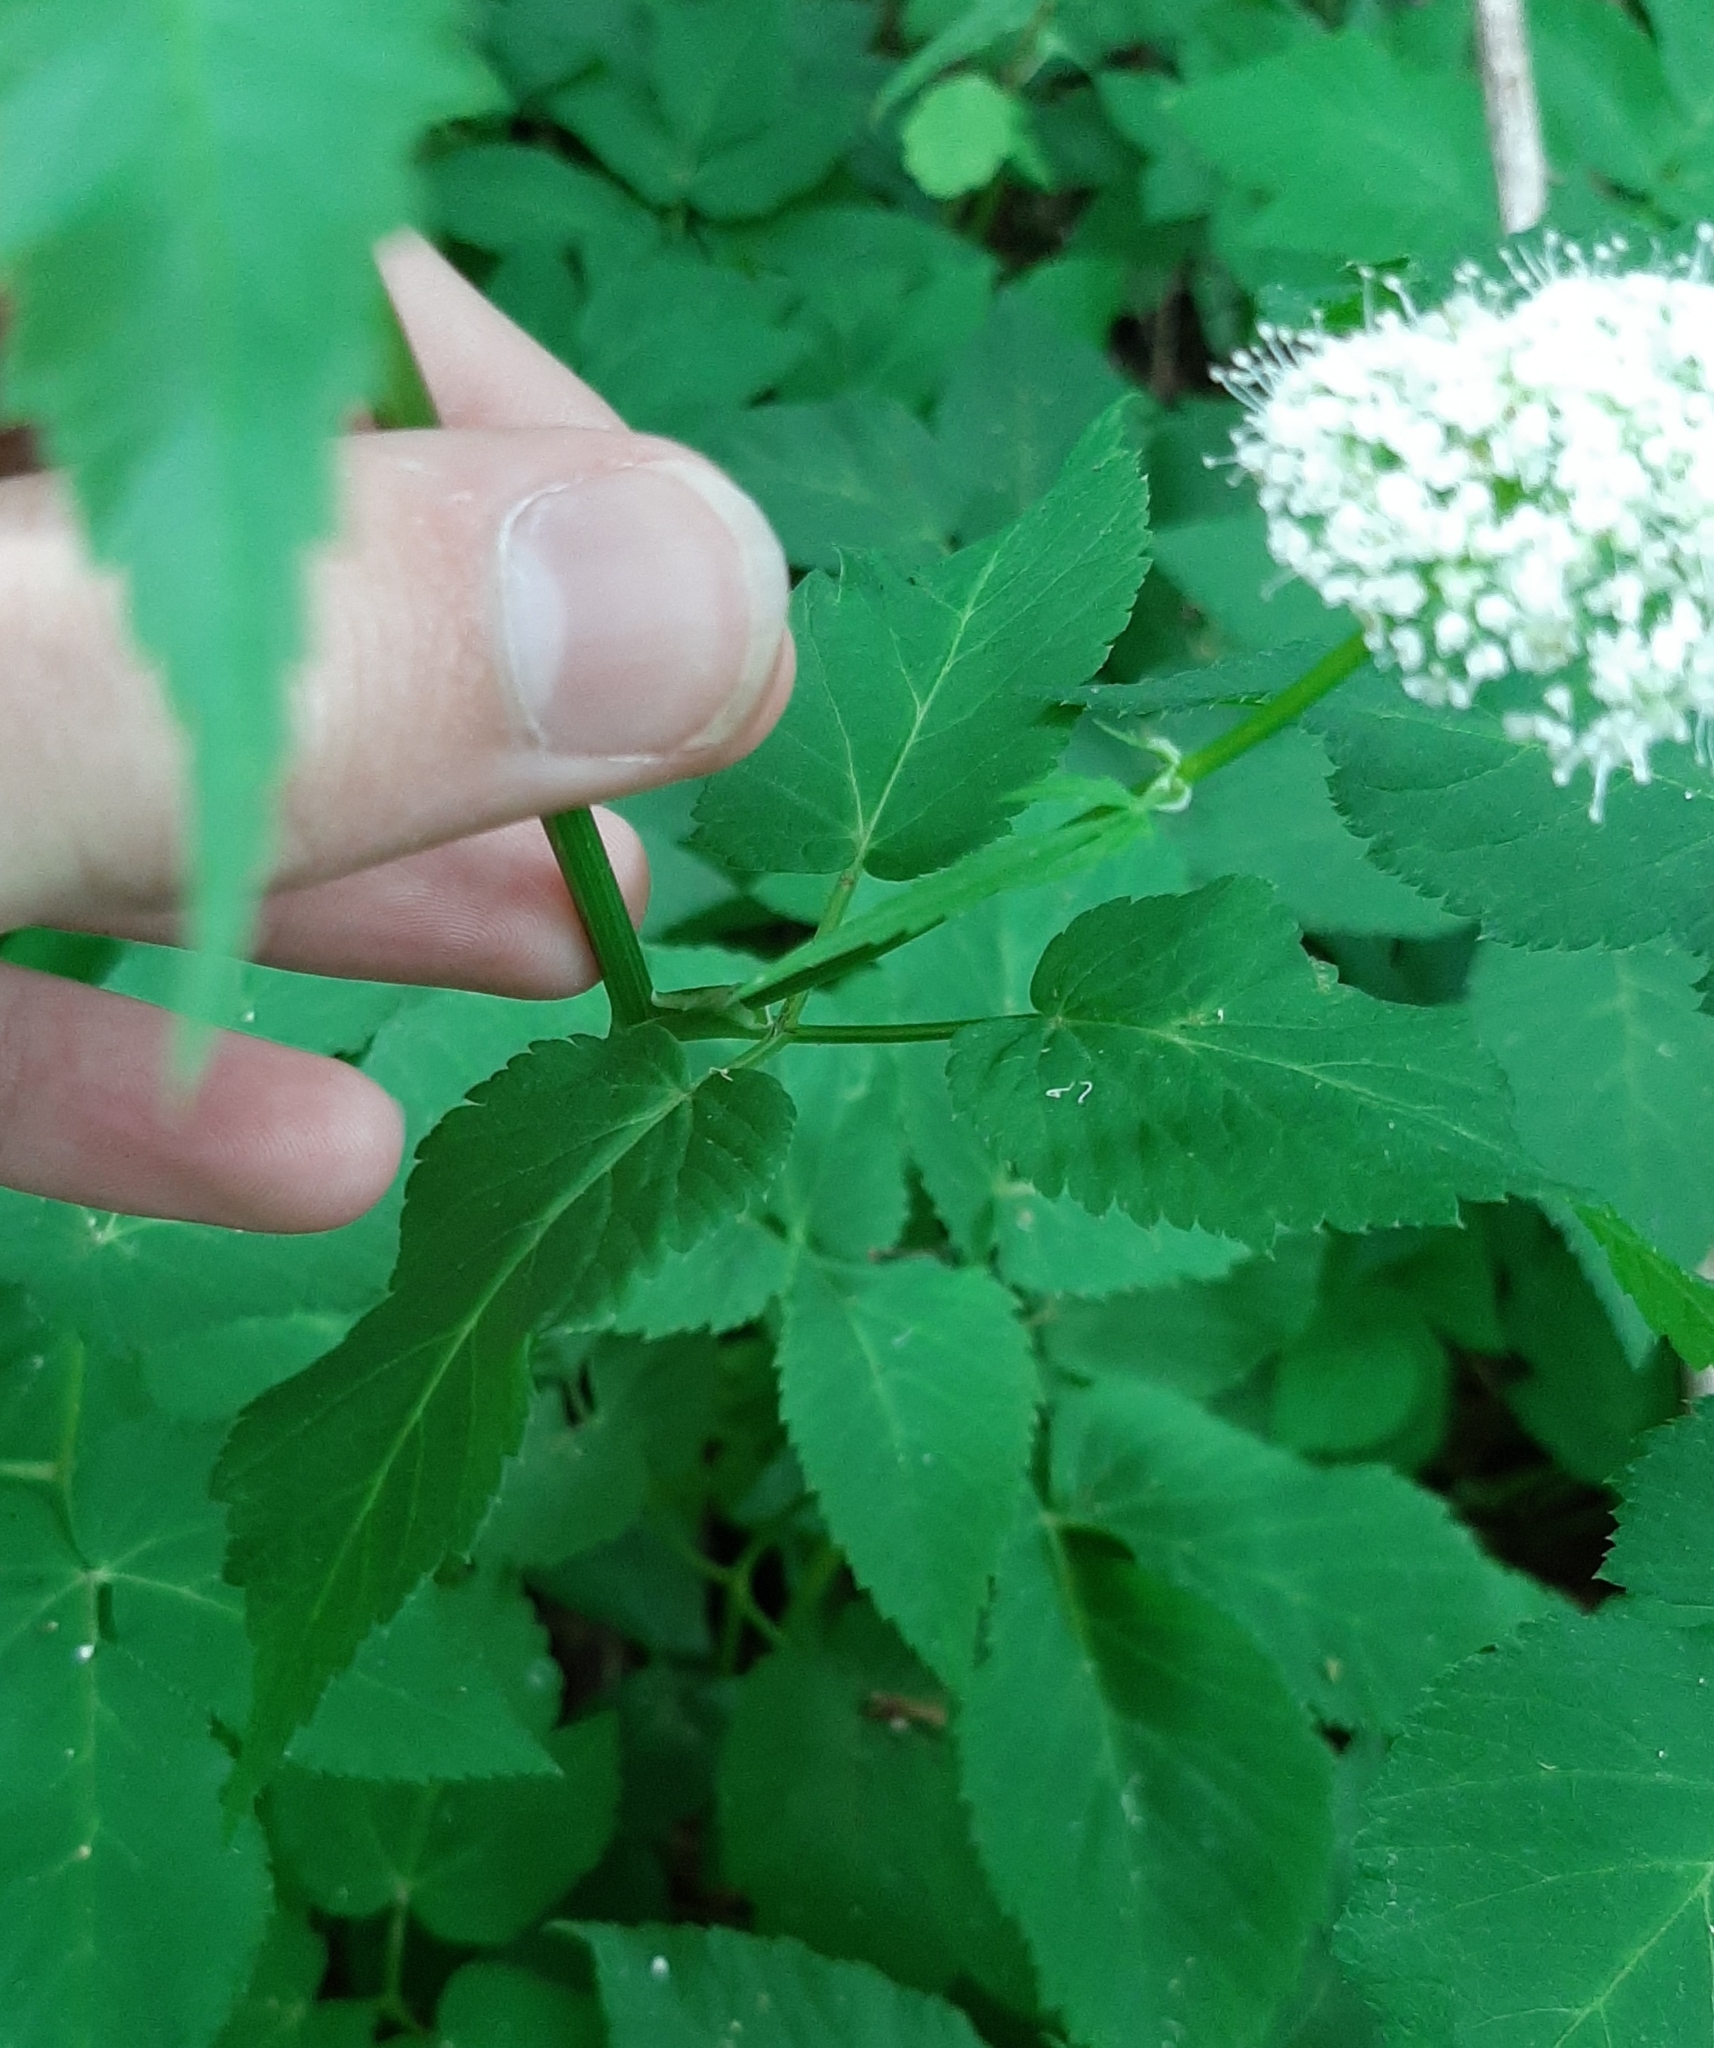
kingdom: Plantae
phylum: Tracheophyta
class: Magnoliopsida
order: Apiales
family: Apiaceae
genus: Aegopodium
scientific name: Aegopodium podagraria
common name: Ground-elder
